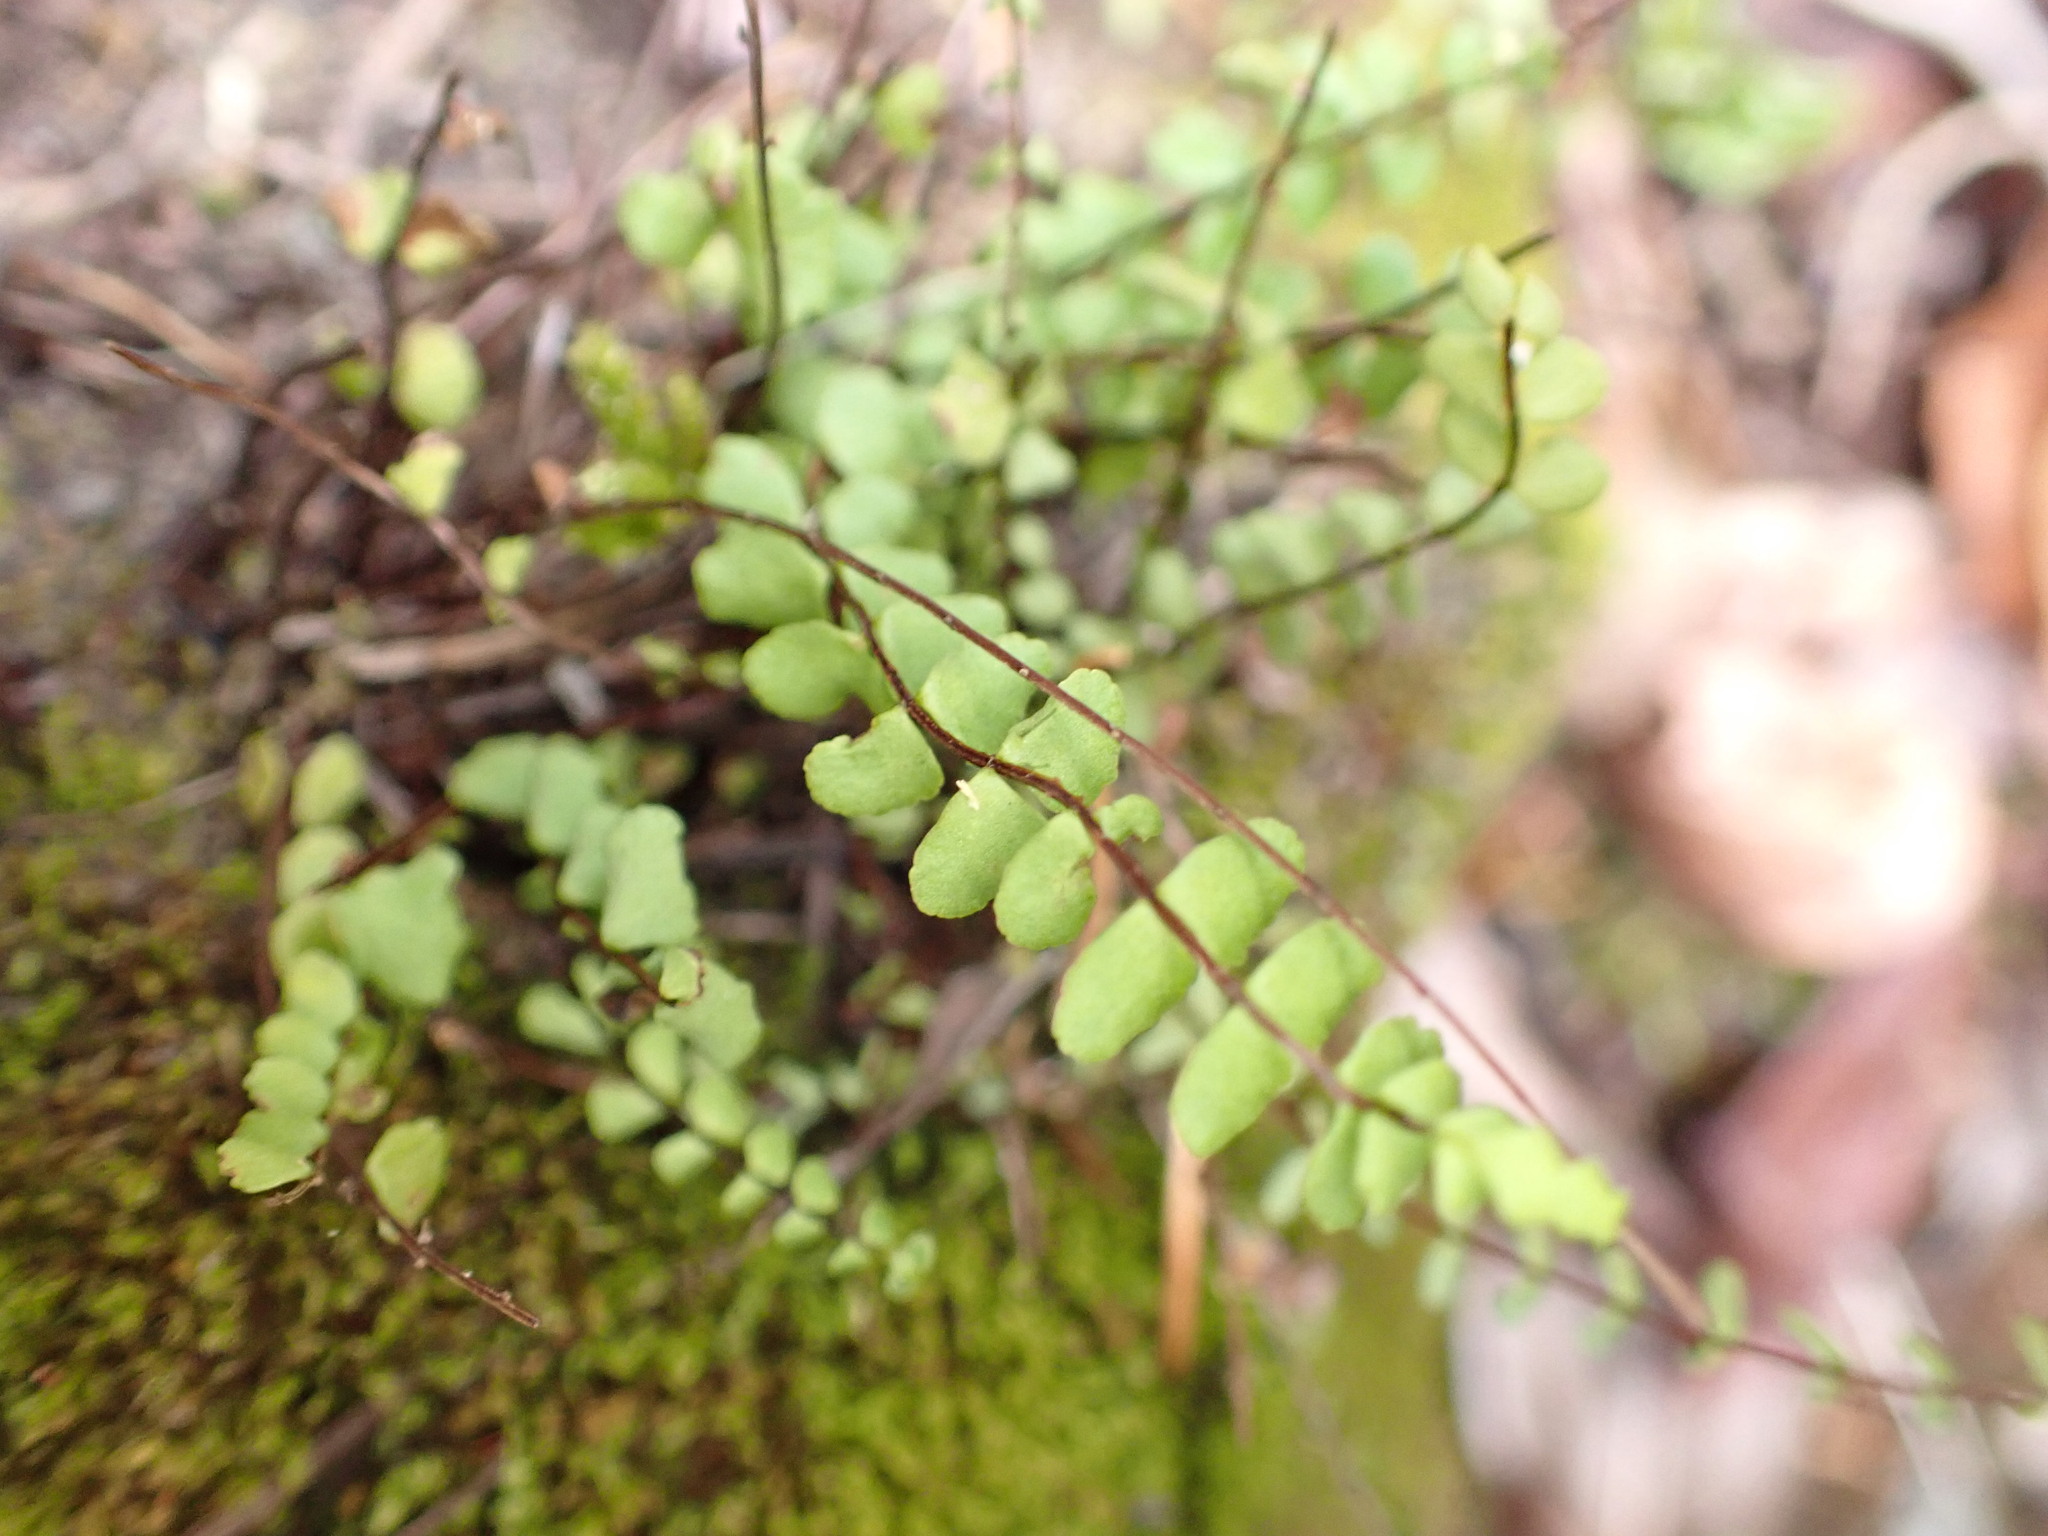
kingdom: Plantae
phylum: Tracheophyta
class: Polypodiopsida
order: Polypodiales
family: Aspleniaceae
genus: Asplenium
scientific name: Asplenium trichomanes
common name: Maidenhair spleenwort
